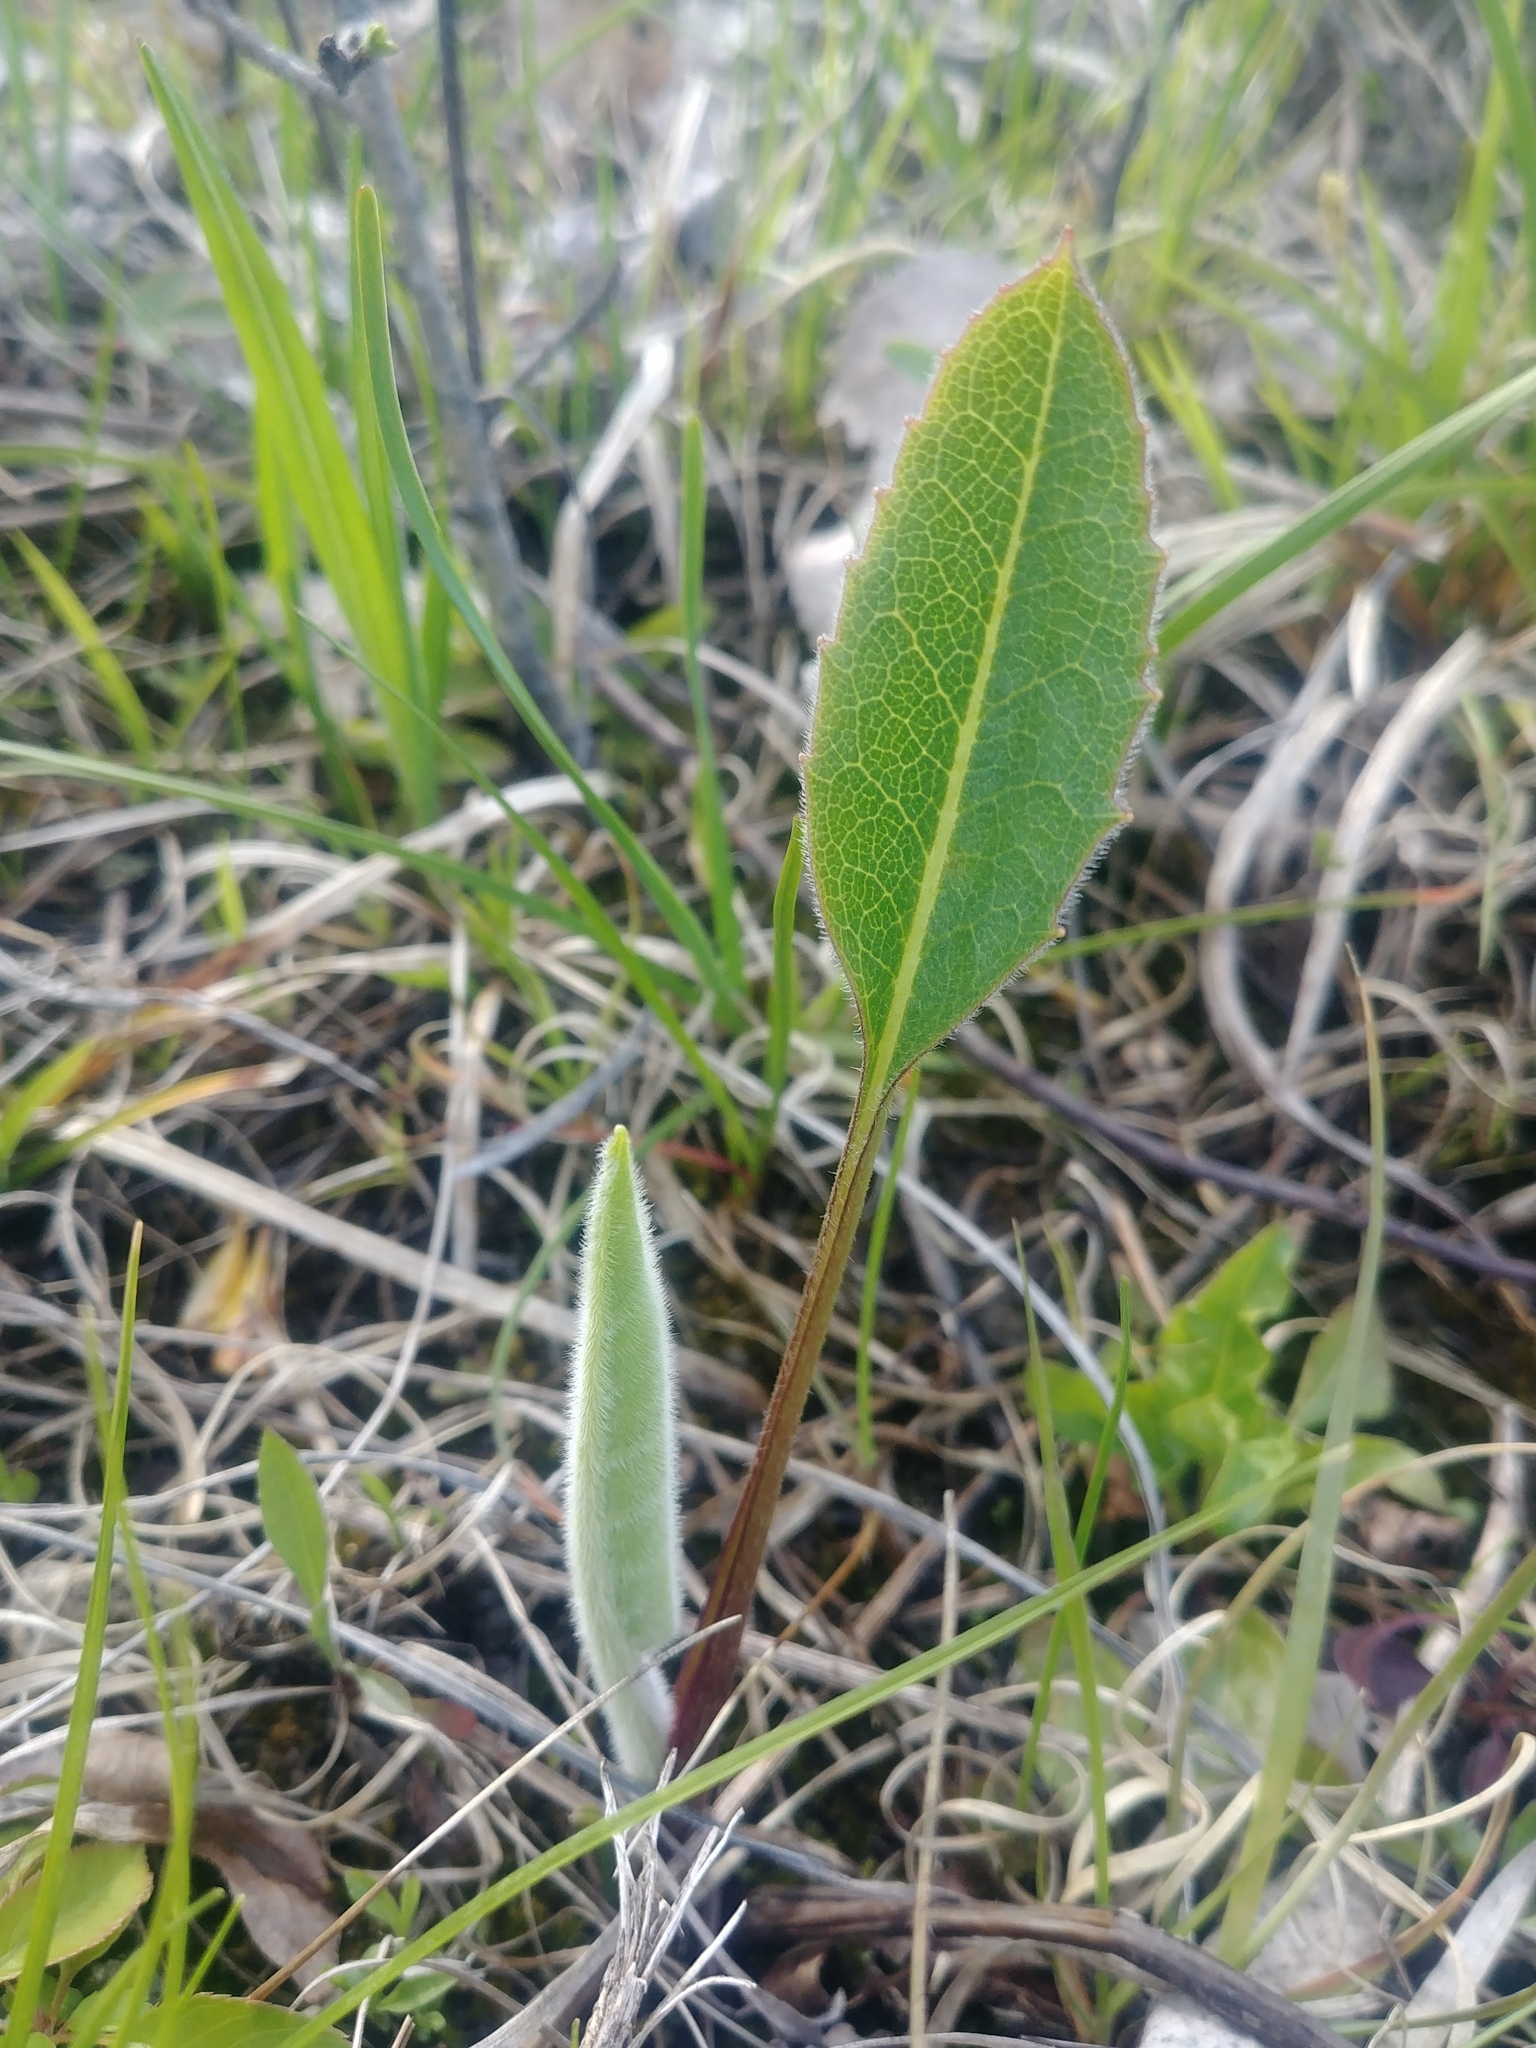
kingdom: Plantae
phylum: Tracheophyta
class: Magnoliopsida
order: Asterales
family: Asteraceae
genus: Silphium
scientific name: Silphium terebinthinaceum
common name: Basal-leaf rosinweed
